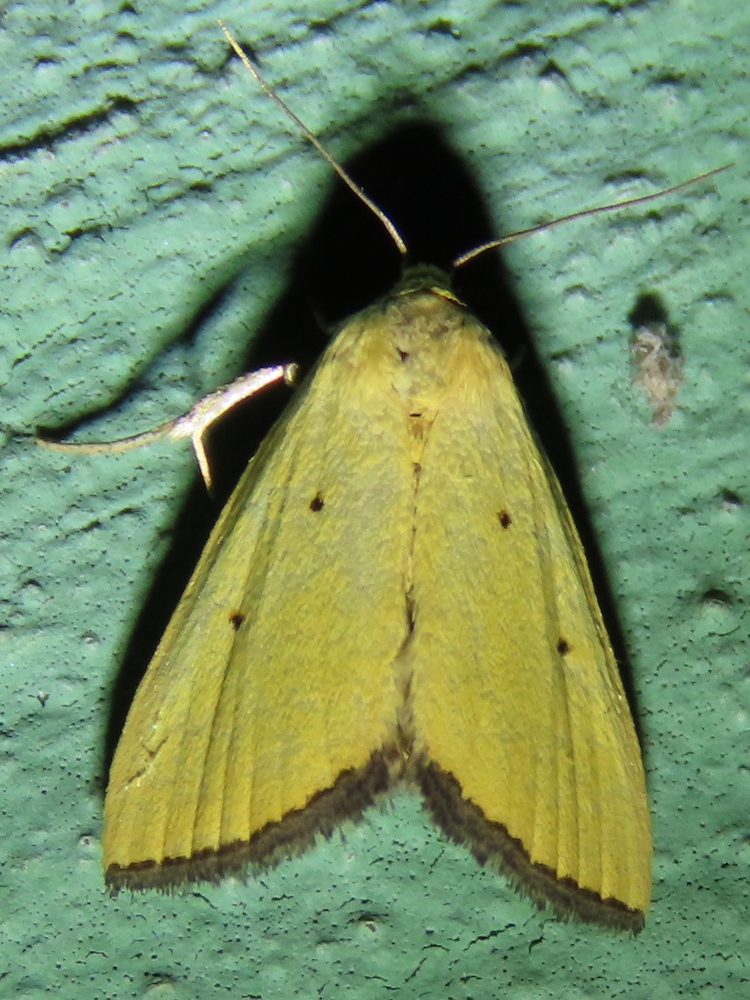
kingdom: Animalia
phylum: Arthropoda
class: Insecta
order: Lepidoptera
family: Noctuidae
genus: Marimatha
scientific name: Marimatha nigrofimbria
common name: Black-bordered lemon moth
